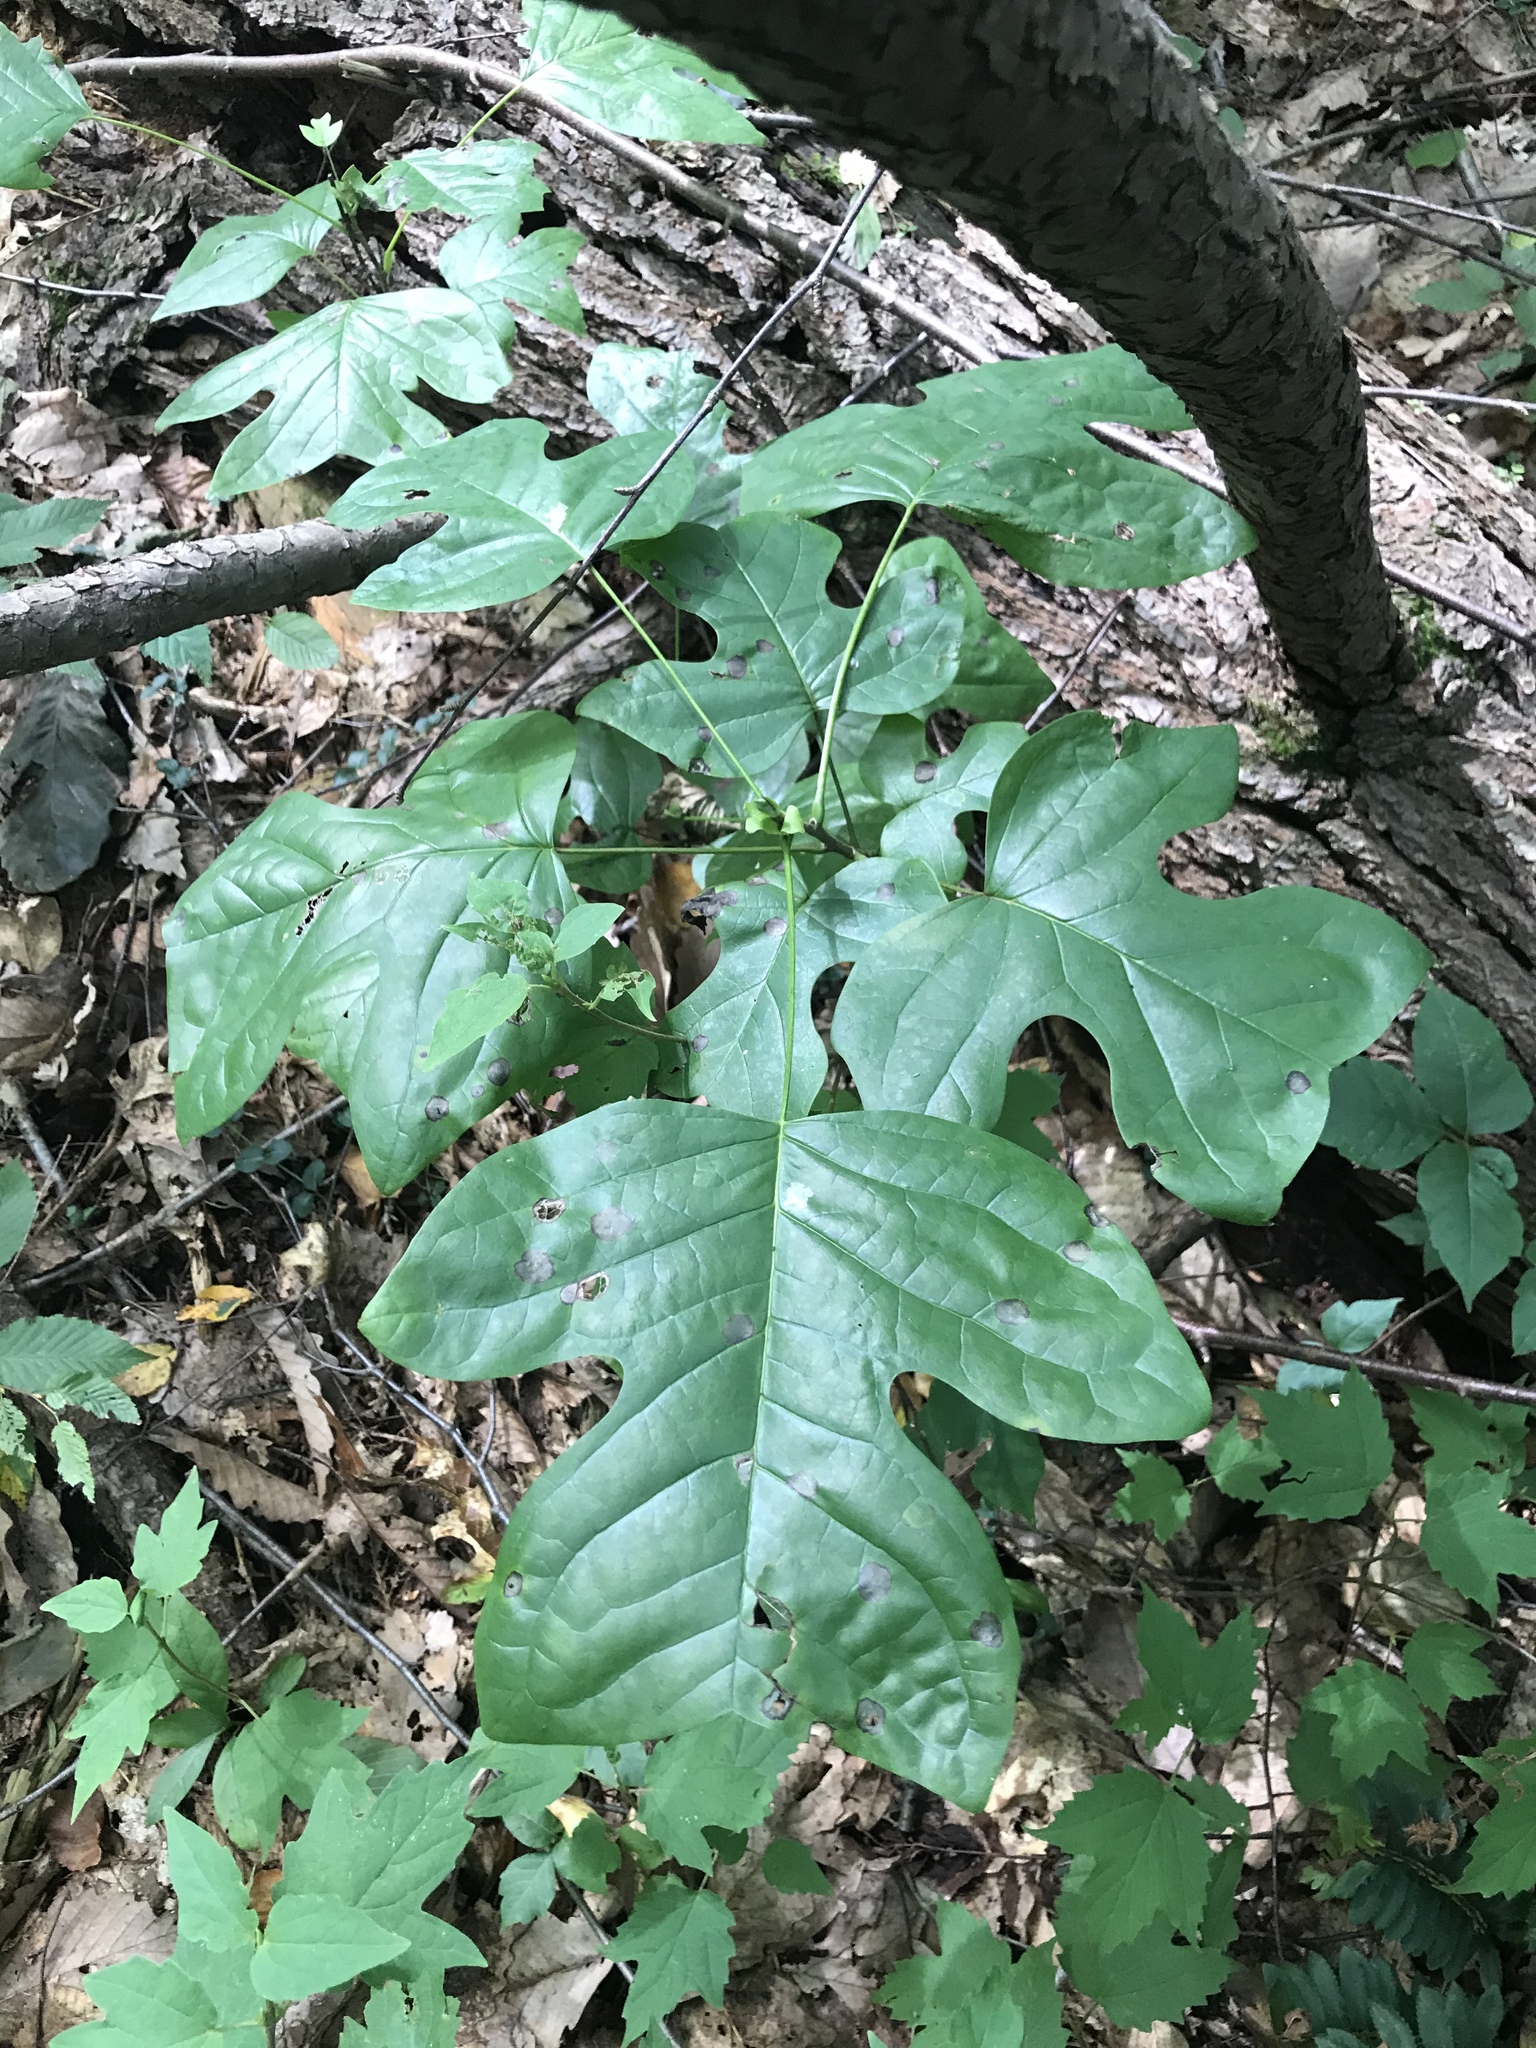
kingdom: Plantae
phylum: Tracheophyta
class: Magnoliopsida
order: Magnoliales
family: Magnoliaceae
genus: Liriodendron
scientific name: Liriodendron tulipifera
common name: Tulip tree
